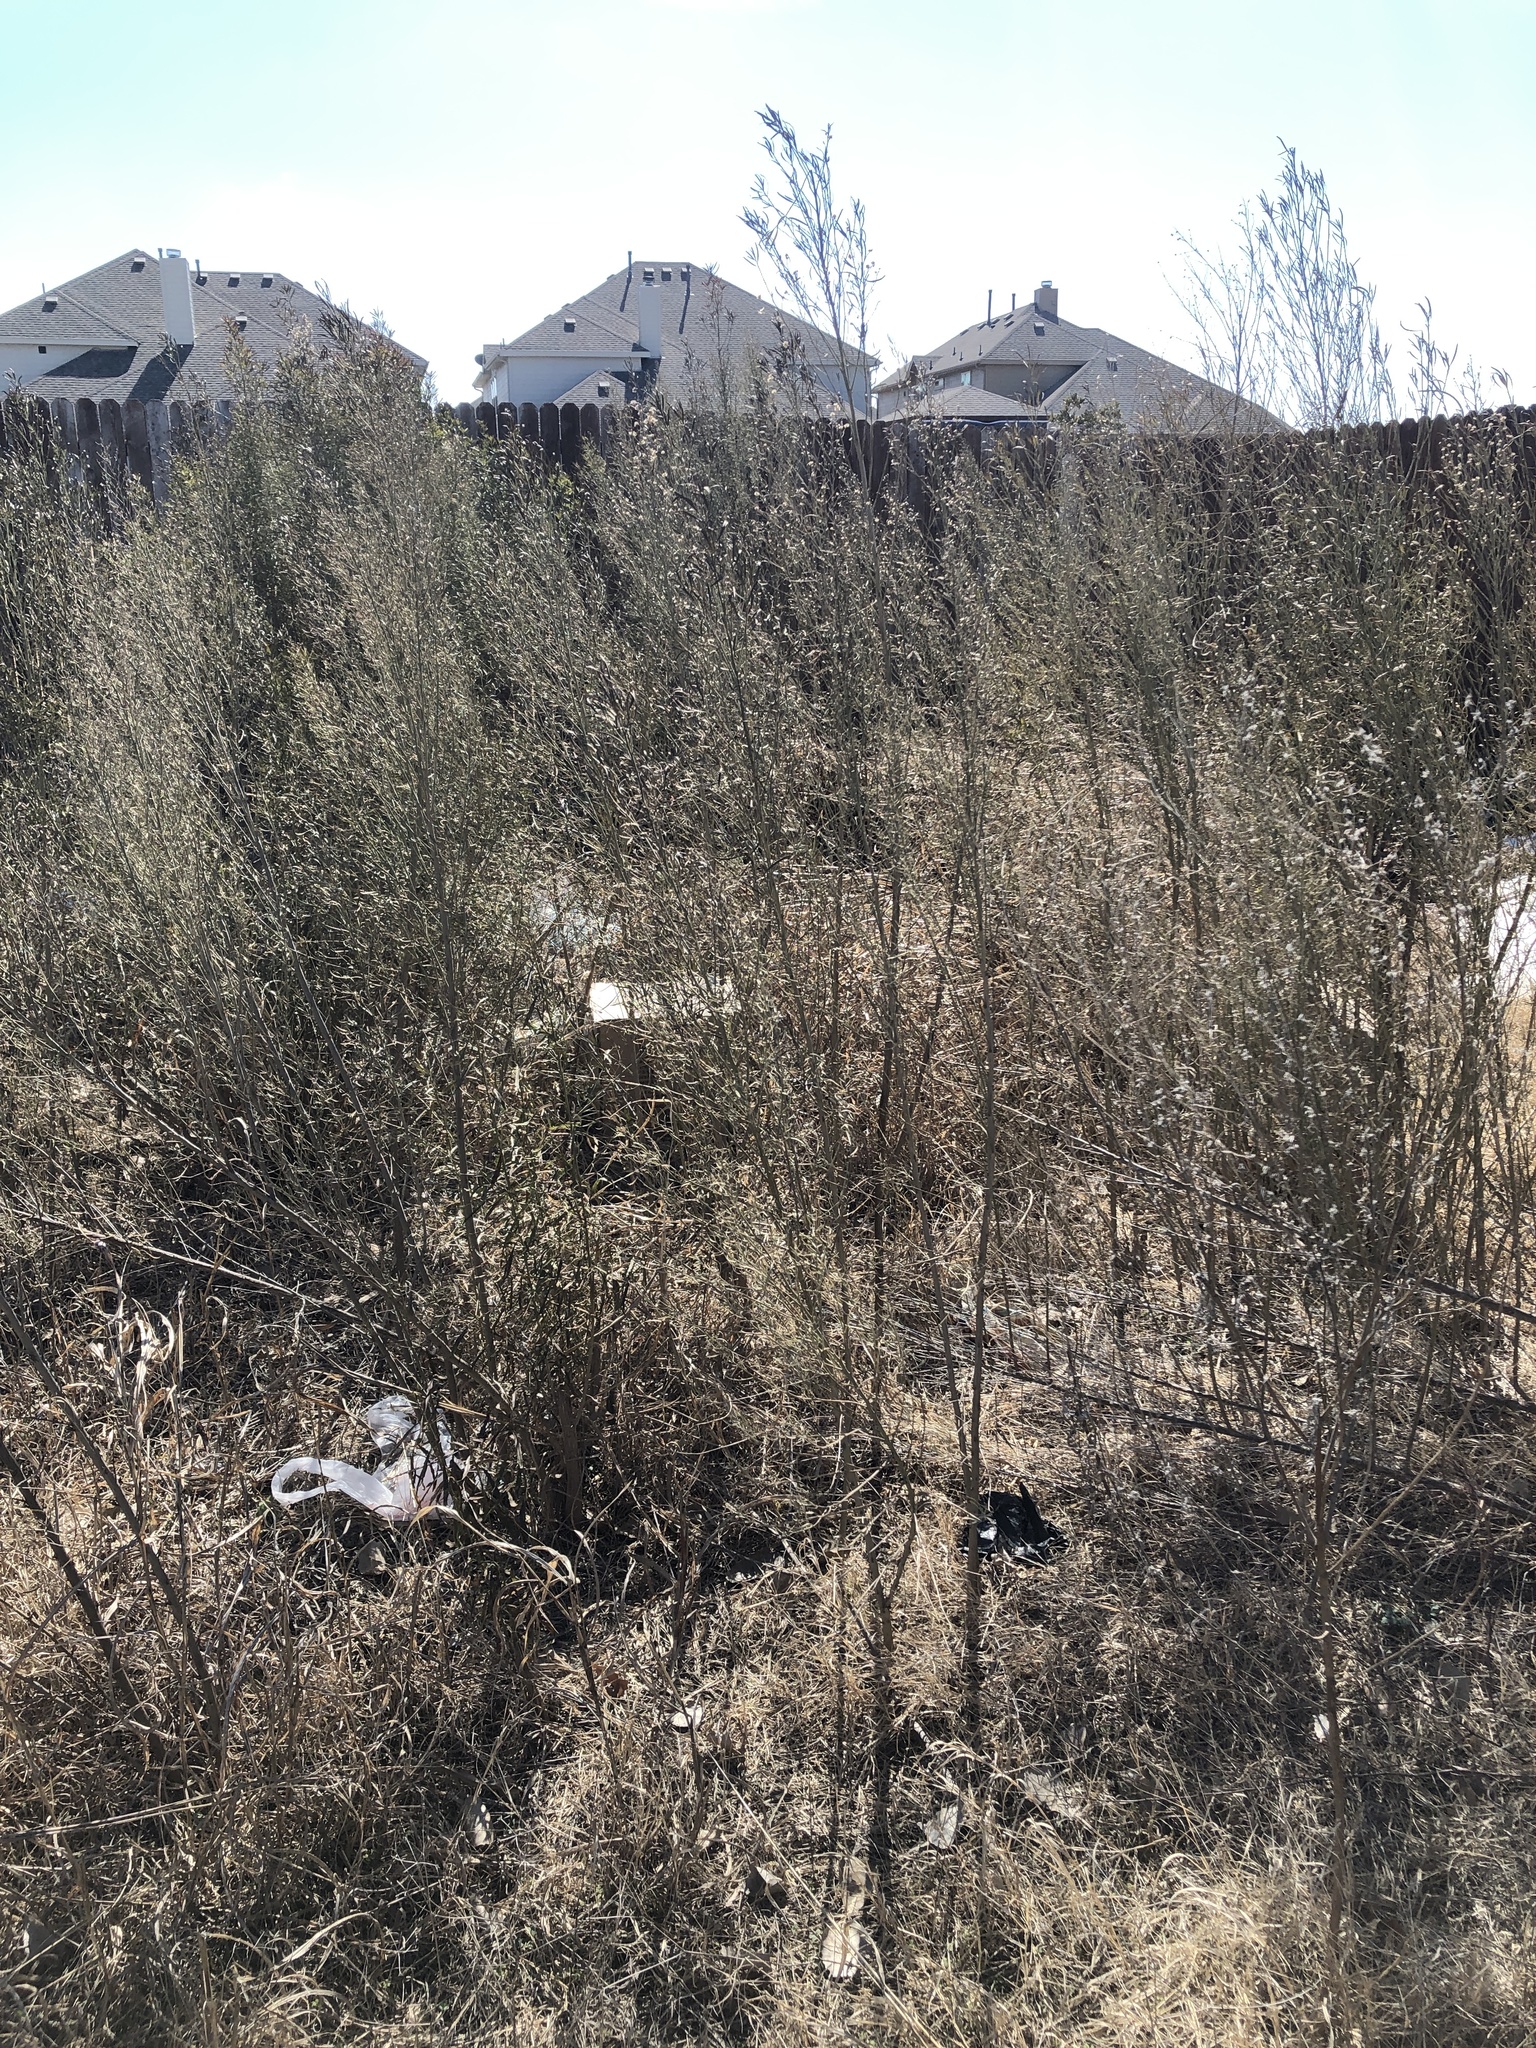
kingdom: Plantae
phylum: Tracheophyta
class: Magnoliopsida
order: Asterales
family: Asteraceae
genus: Baccharis
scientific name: Baccharis neglecta
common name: Roosevelt-weed
